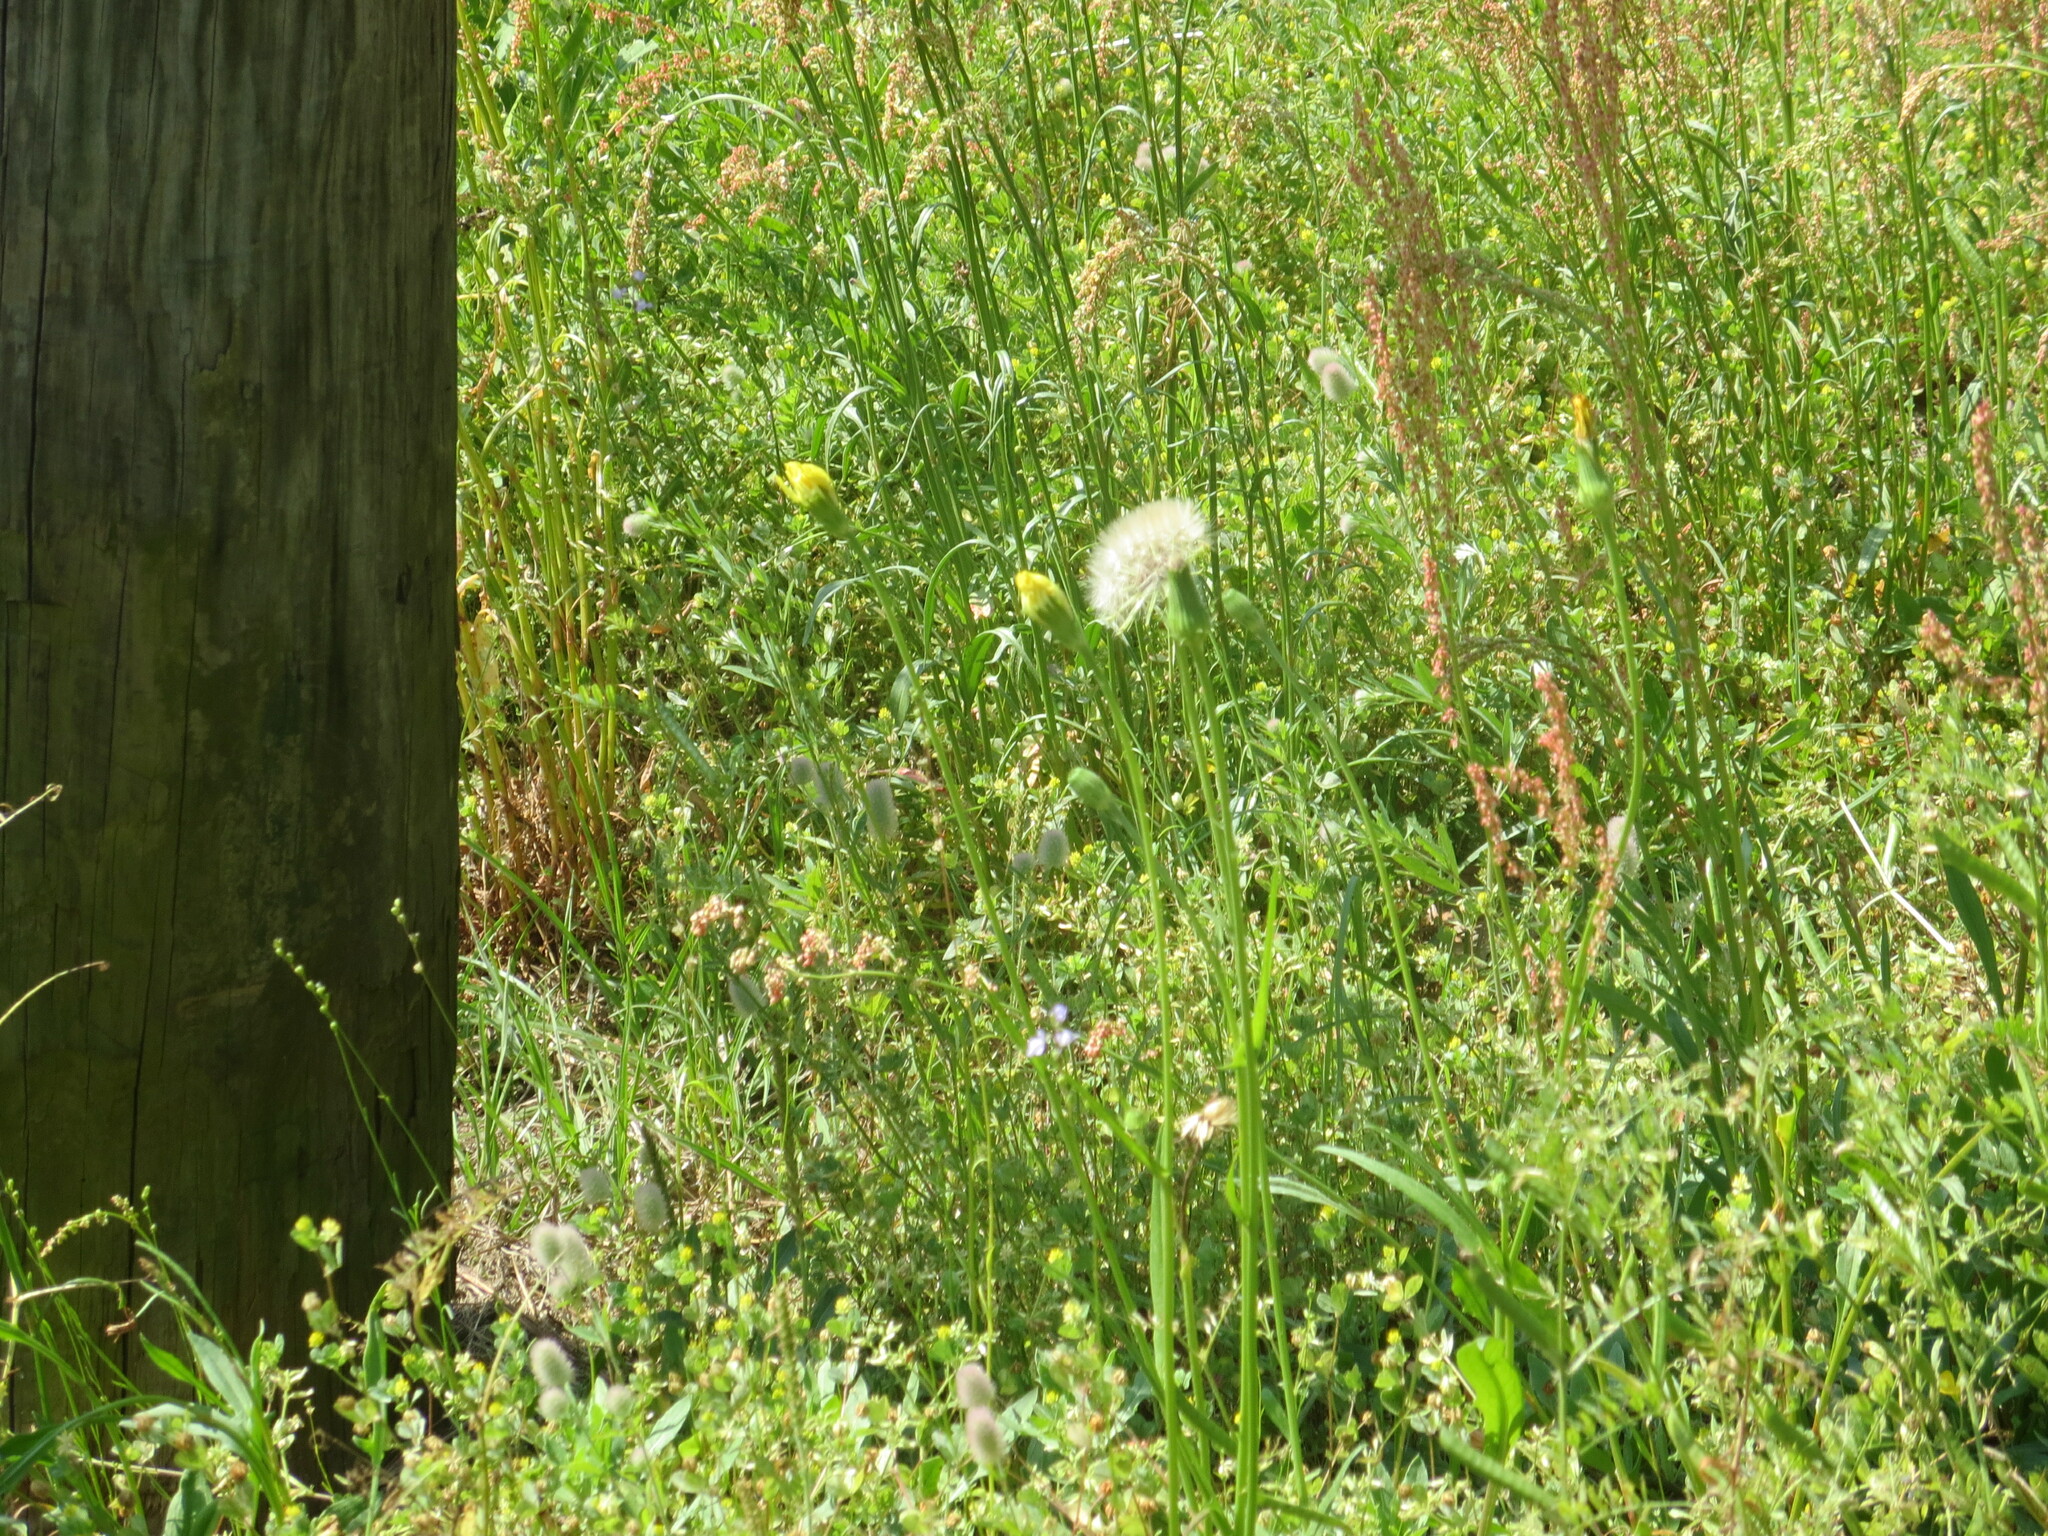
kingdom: Plantae
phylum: Tracheophyta
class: Magnoliopsida
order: Asterales
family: Asteraceae
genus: Pyrrhopappus
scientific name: Pyrrhopappus carolinianus
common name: Carolina desert-chicory
